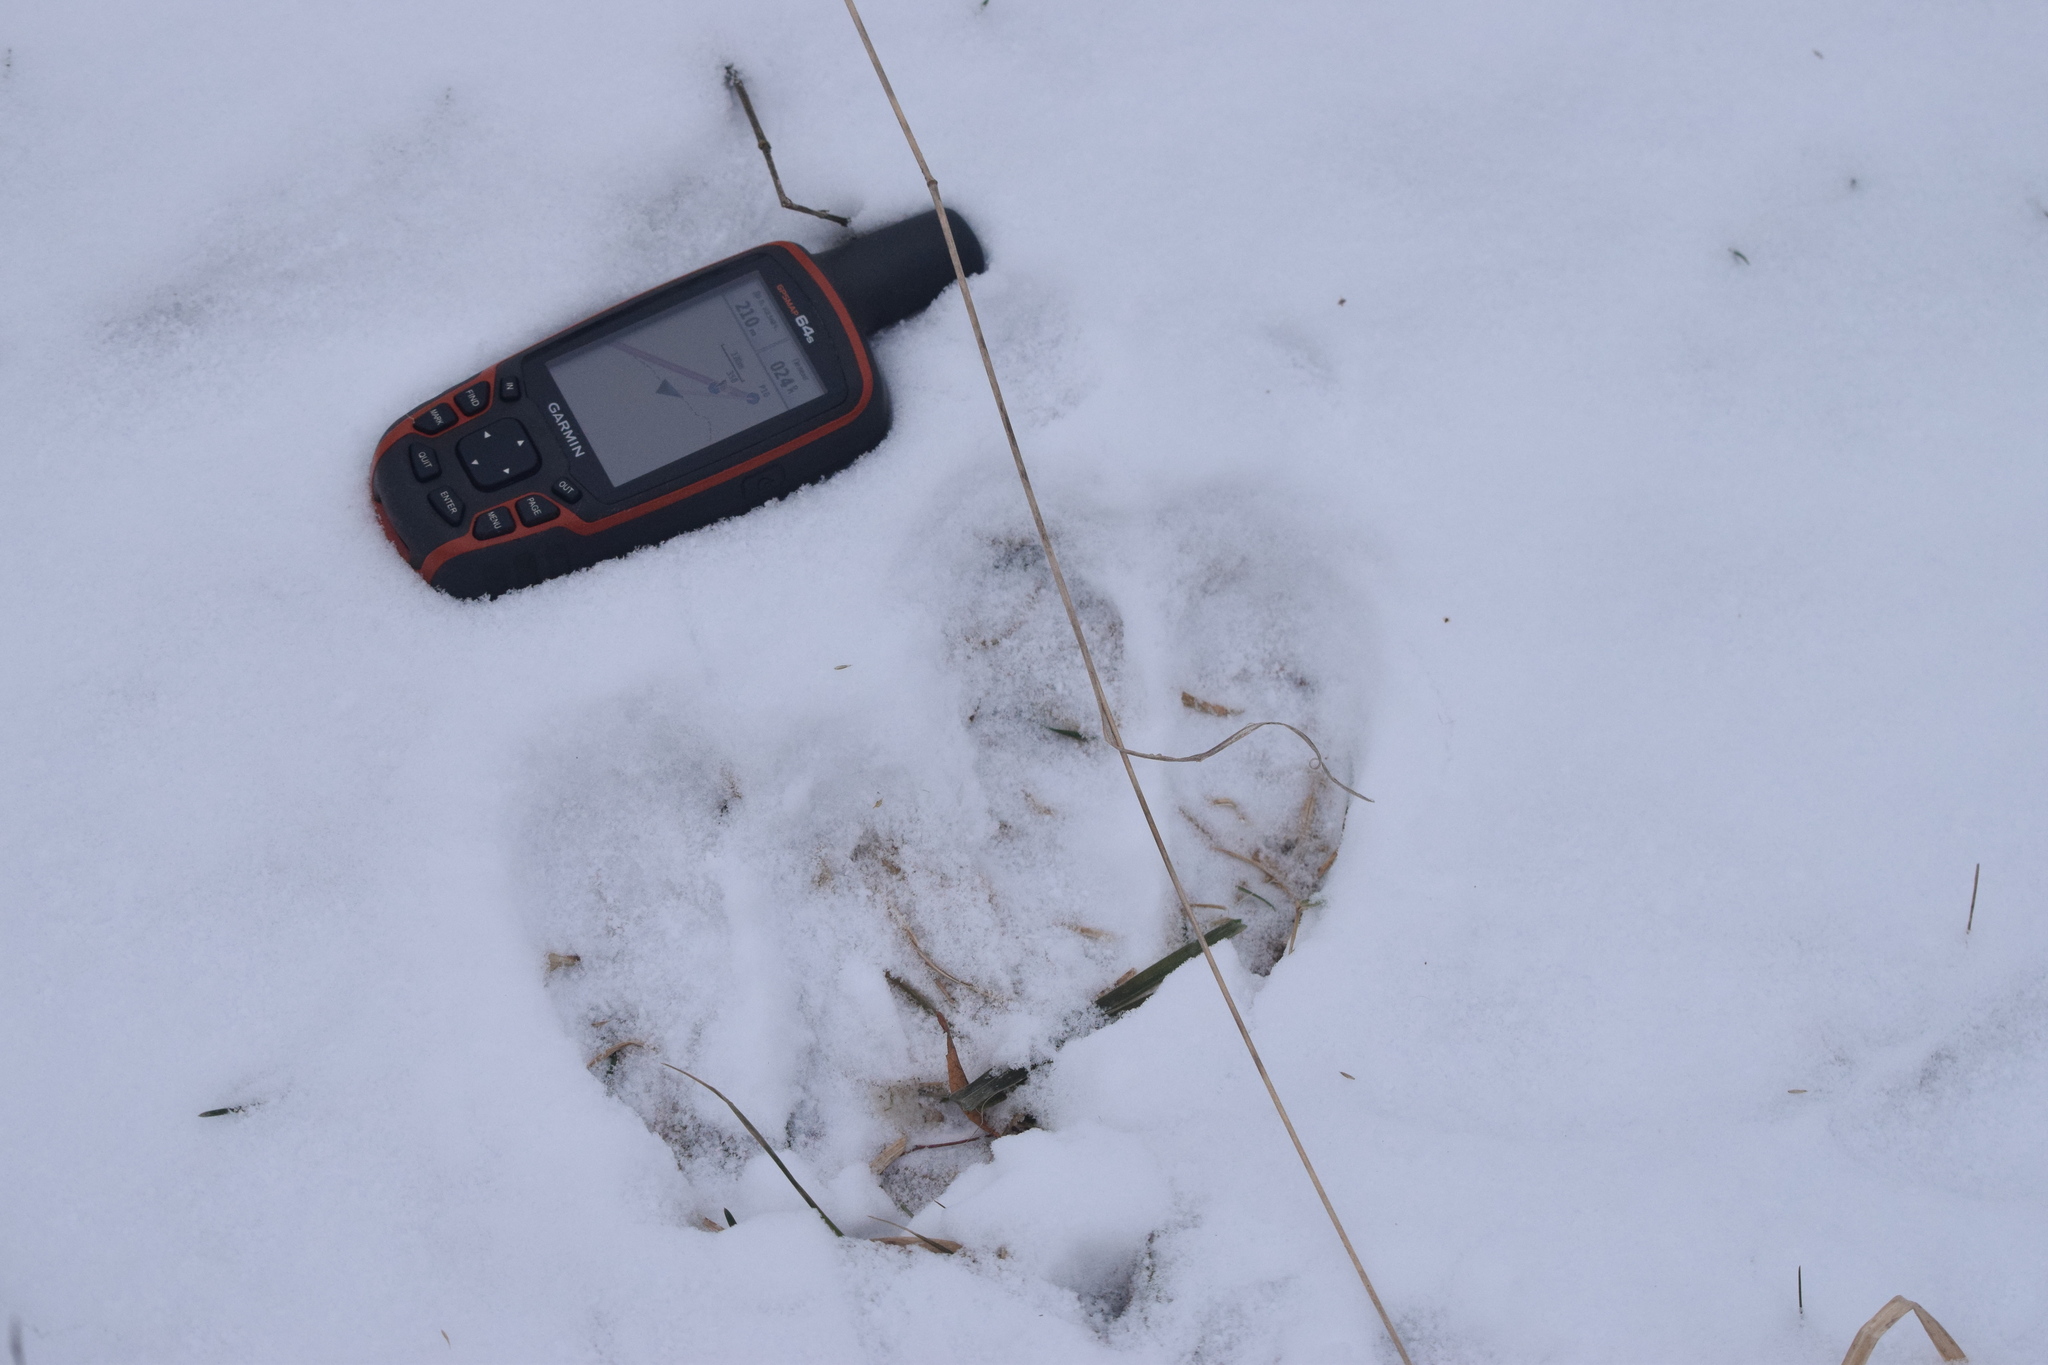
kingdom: Animalia
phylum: Chordata
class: Mammalia
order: Artiodactyla
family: Cervidae
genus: Alces
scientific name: Alces alces
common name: Moose
